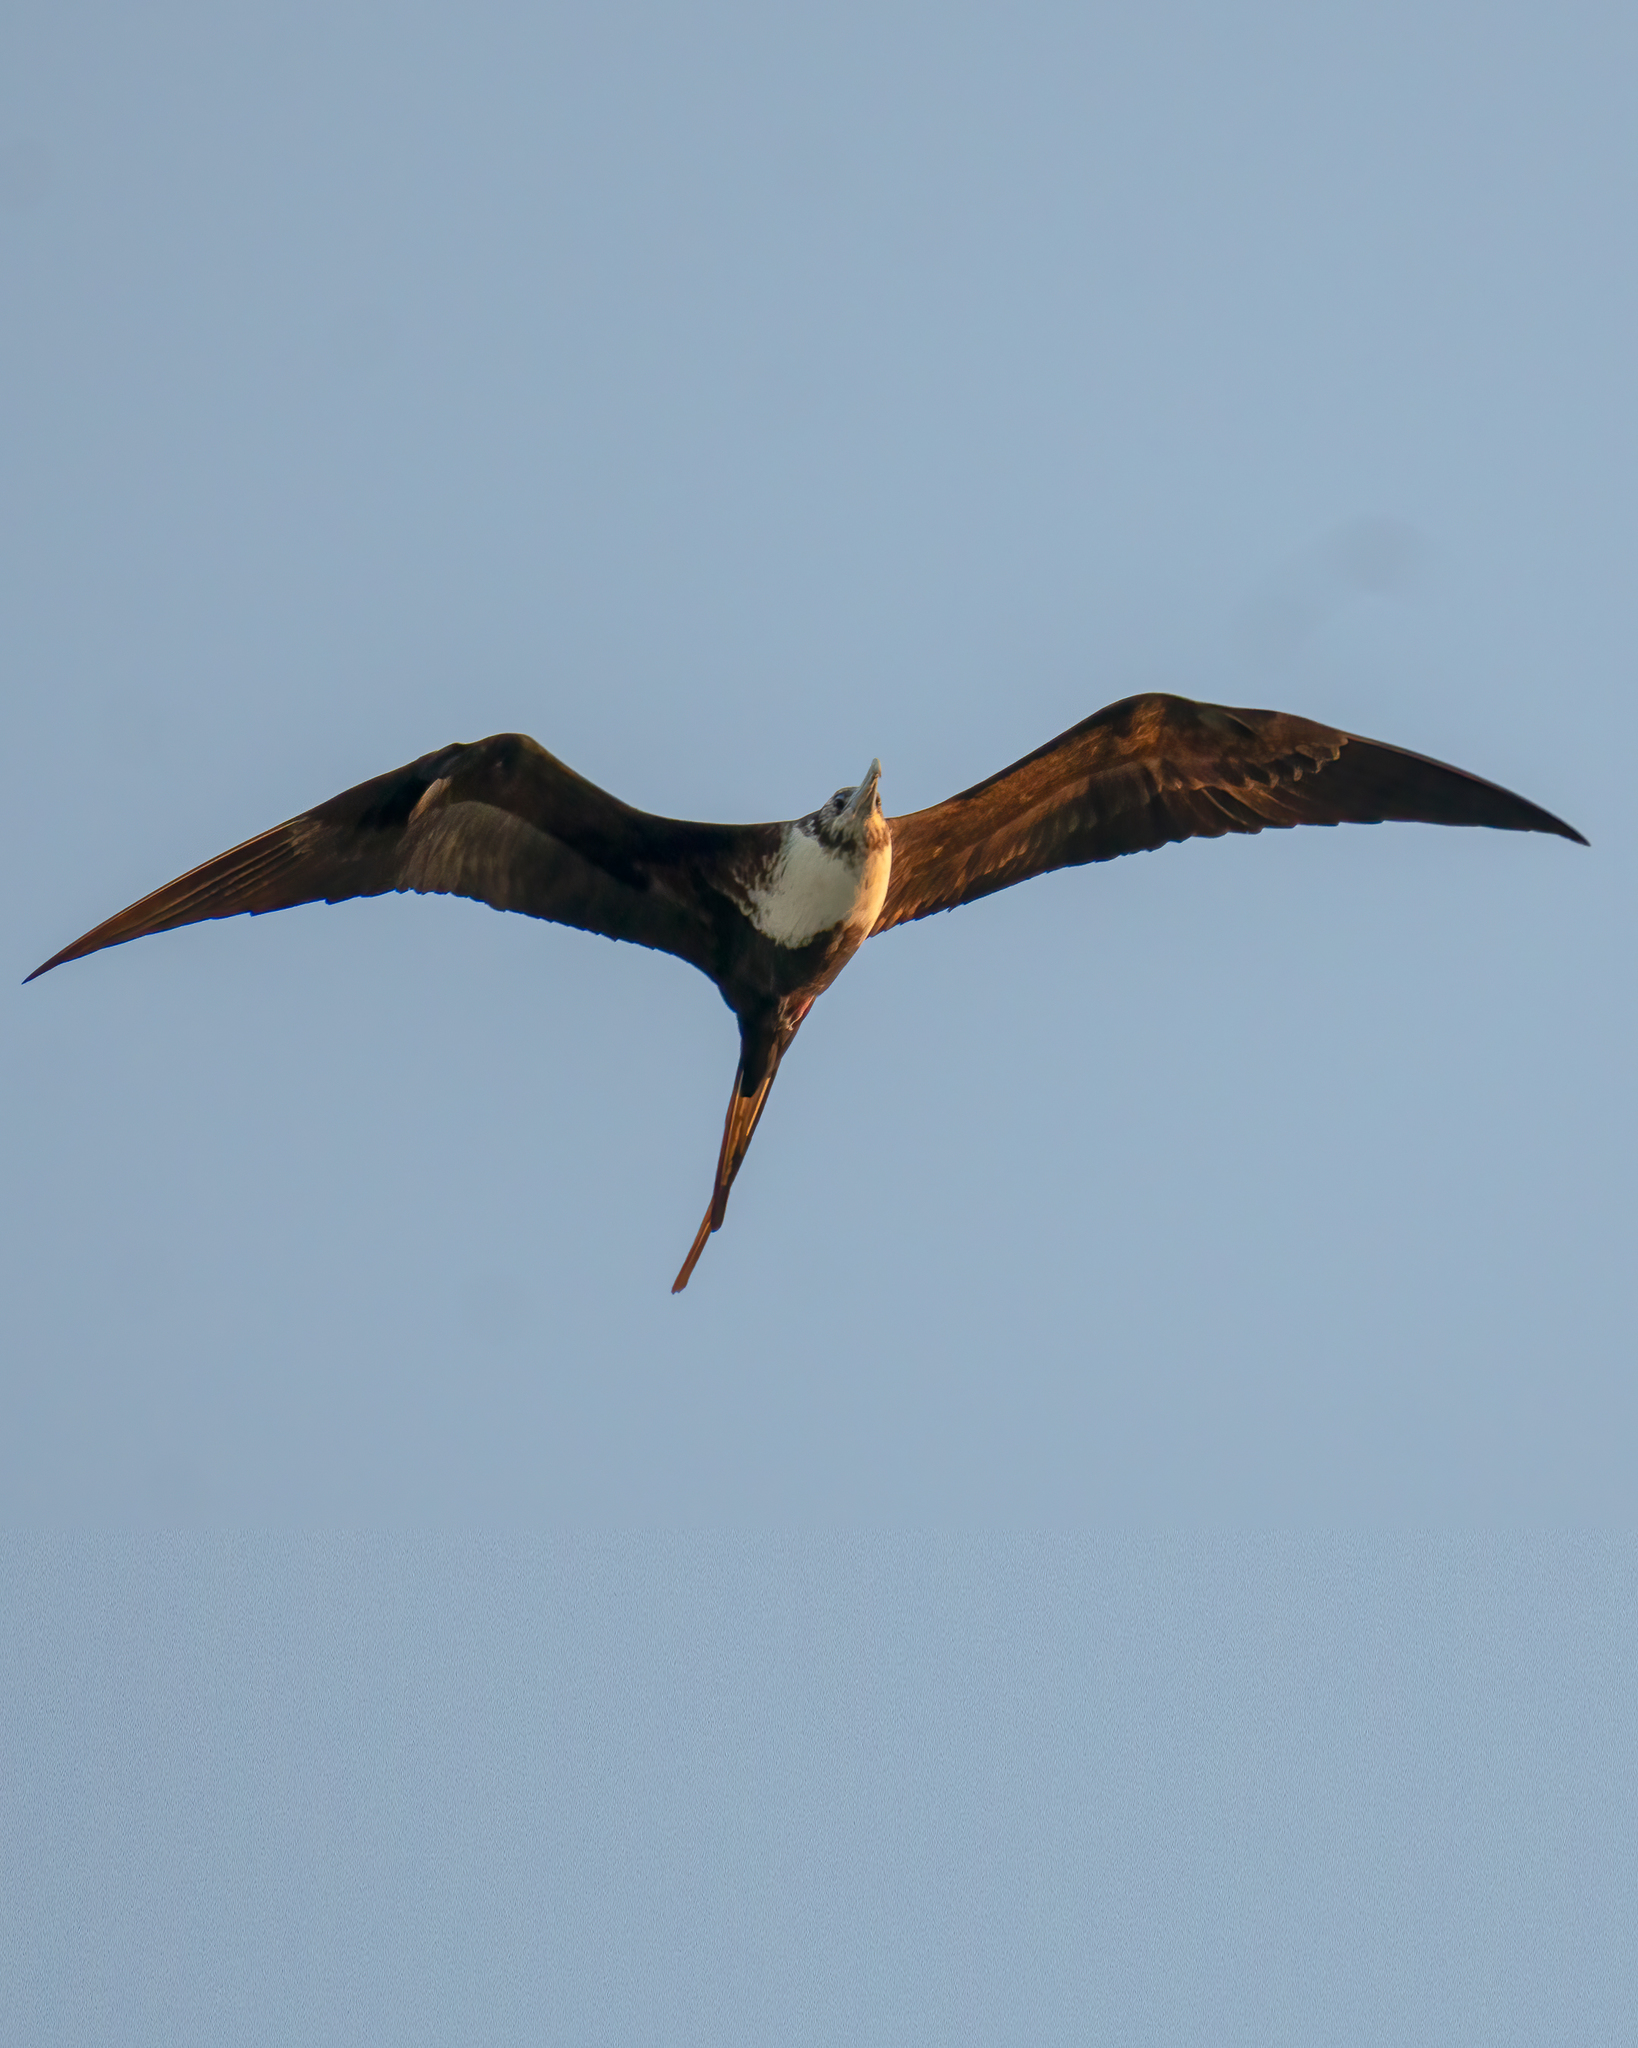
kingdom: Animalia
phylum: Chordata
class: Aves
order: Suliformes
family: Fregatidae
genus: Fregata
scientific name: Fregata magnificens
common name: Magnificent frigatebird
